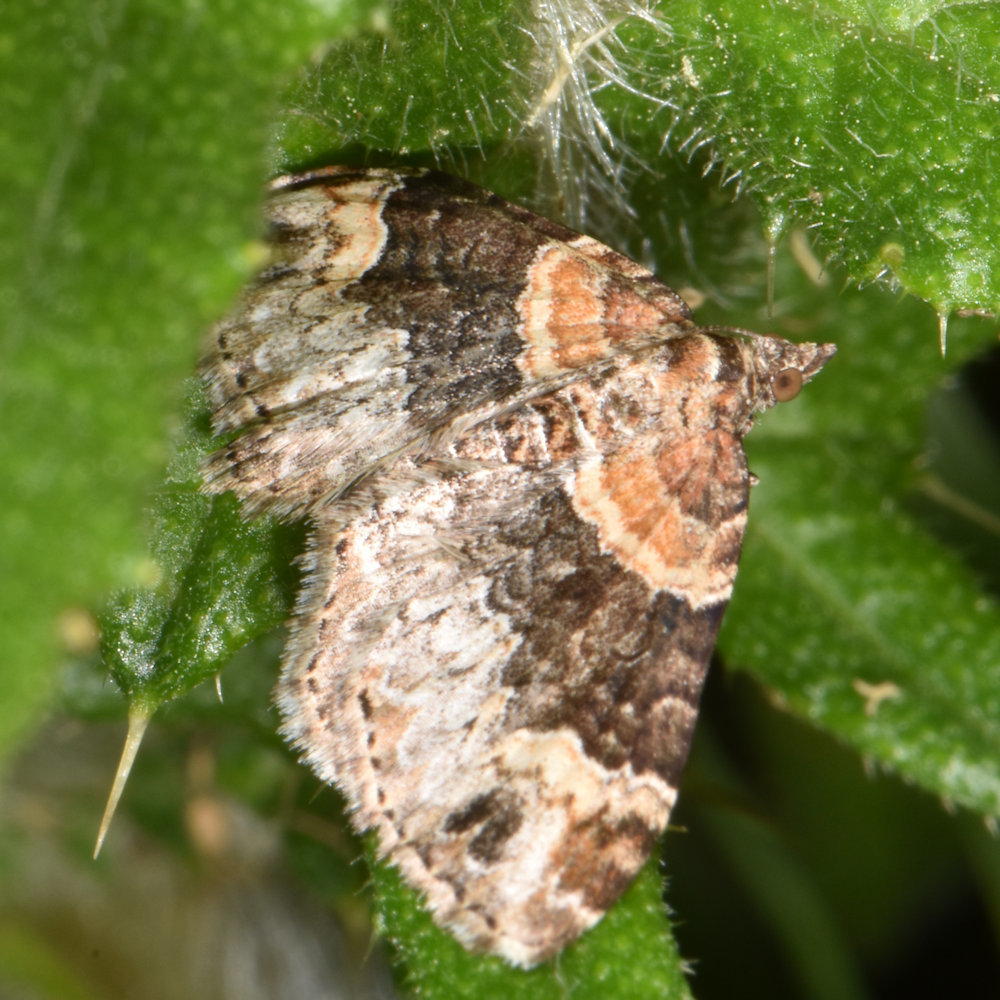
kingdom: Animalia
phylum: Arthropoda
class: Insecta
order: Lepidoptera
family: Geometridae
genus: Xanthorhoe
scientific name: Xanthorhoe ferrugata
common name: Dark-barred twin-spot carpet
